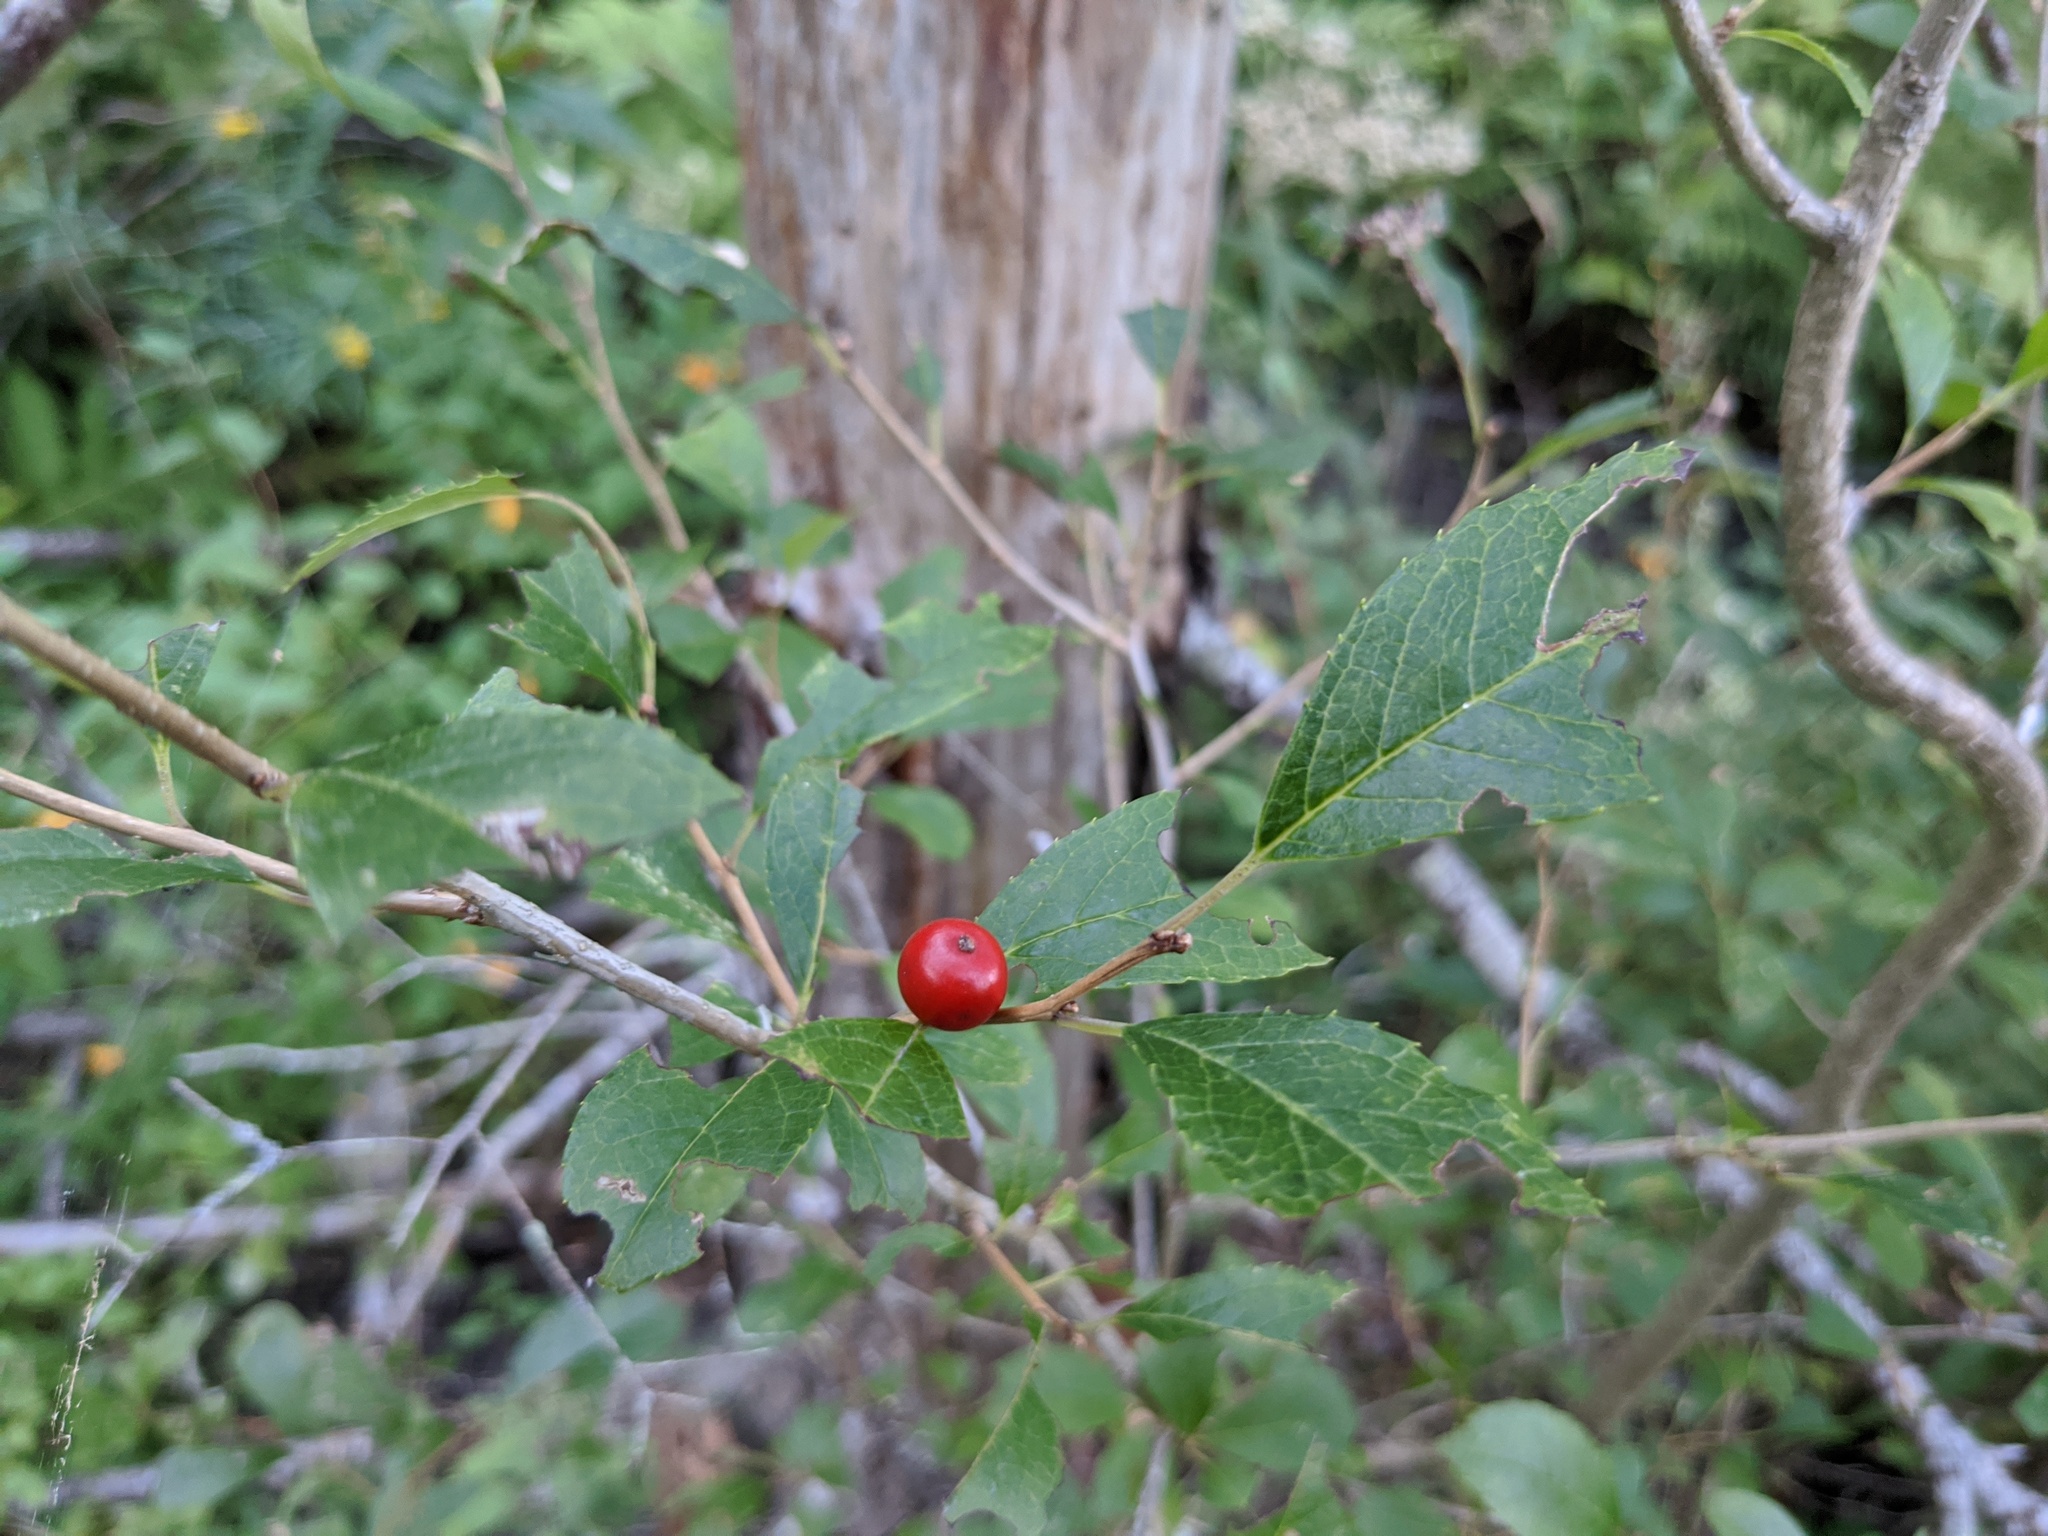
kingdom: Plantae
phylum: Tracheophyta
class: Magnoliopsida
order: Aquifoliales
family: Aquifoliaceae
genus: Ilex
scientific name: Ilex verticillata
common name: Virginia winterberry
